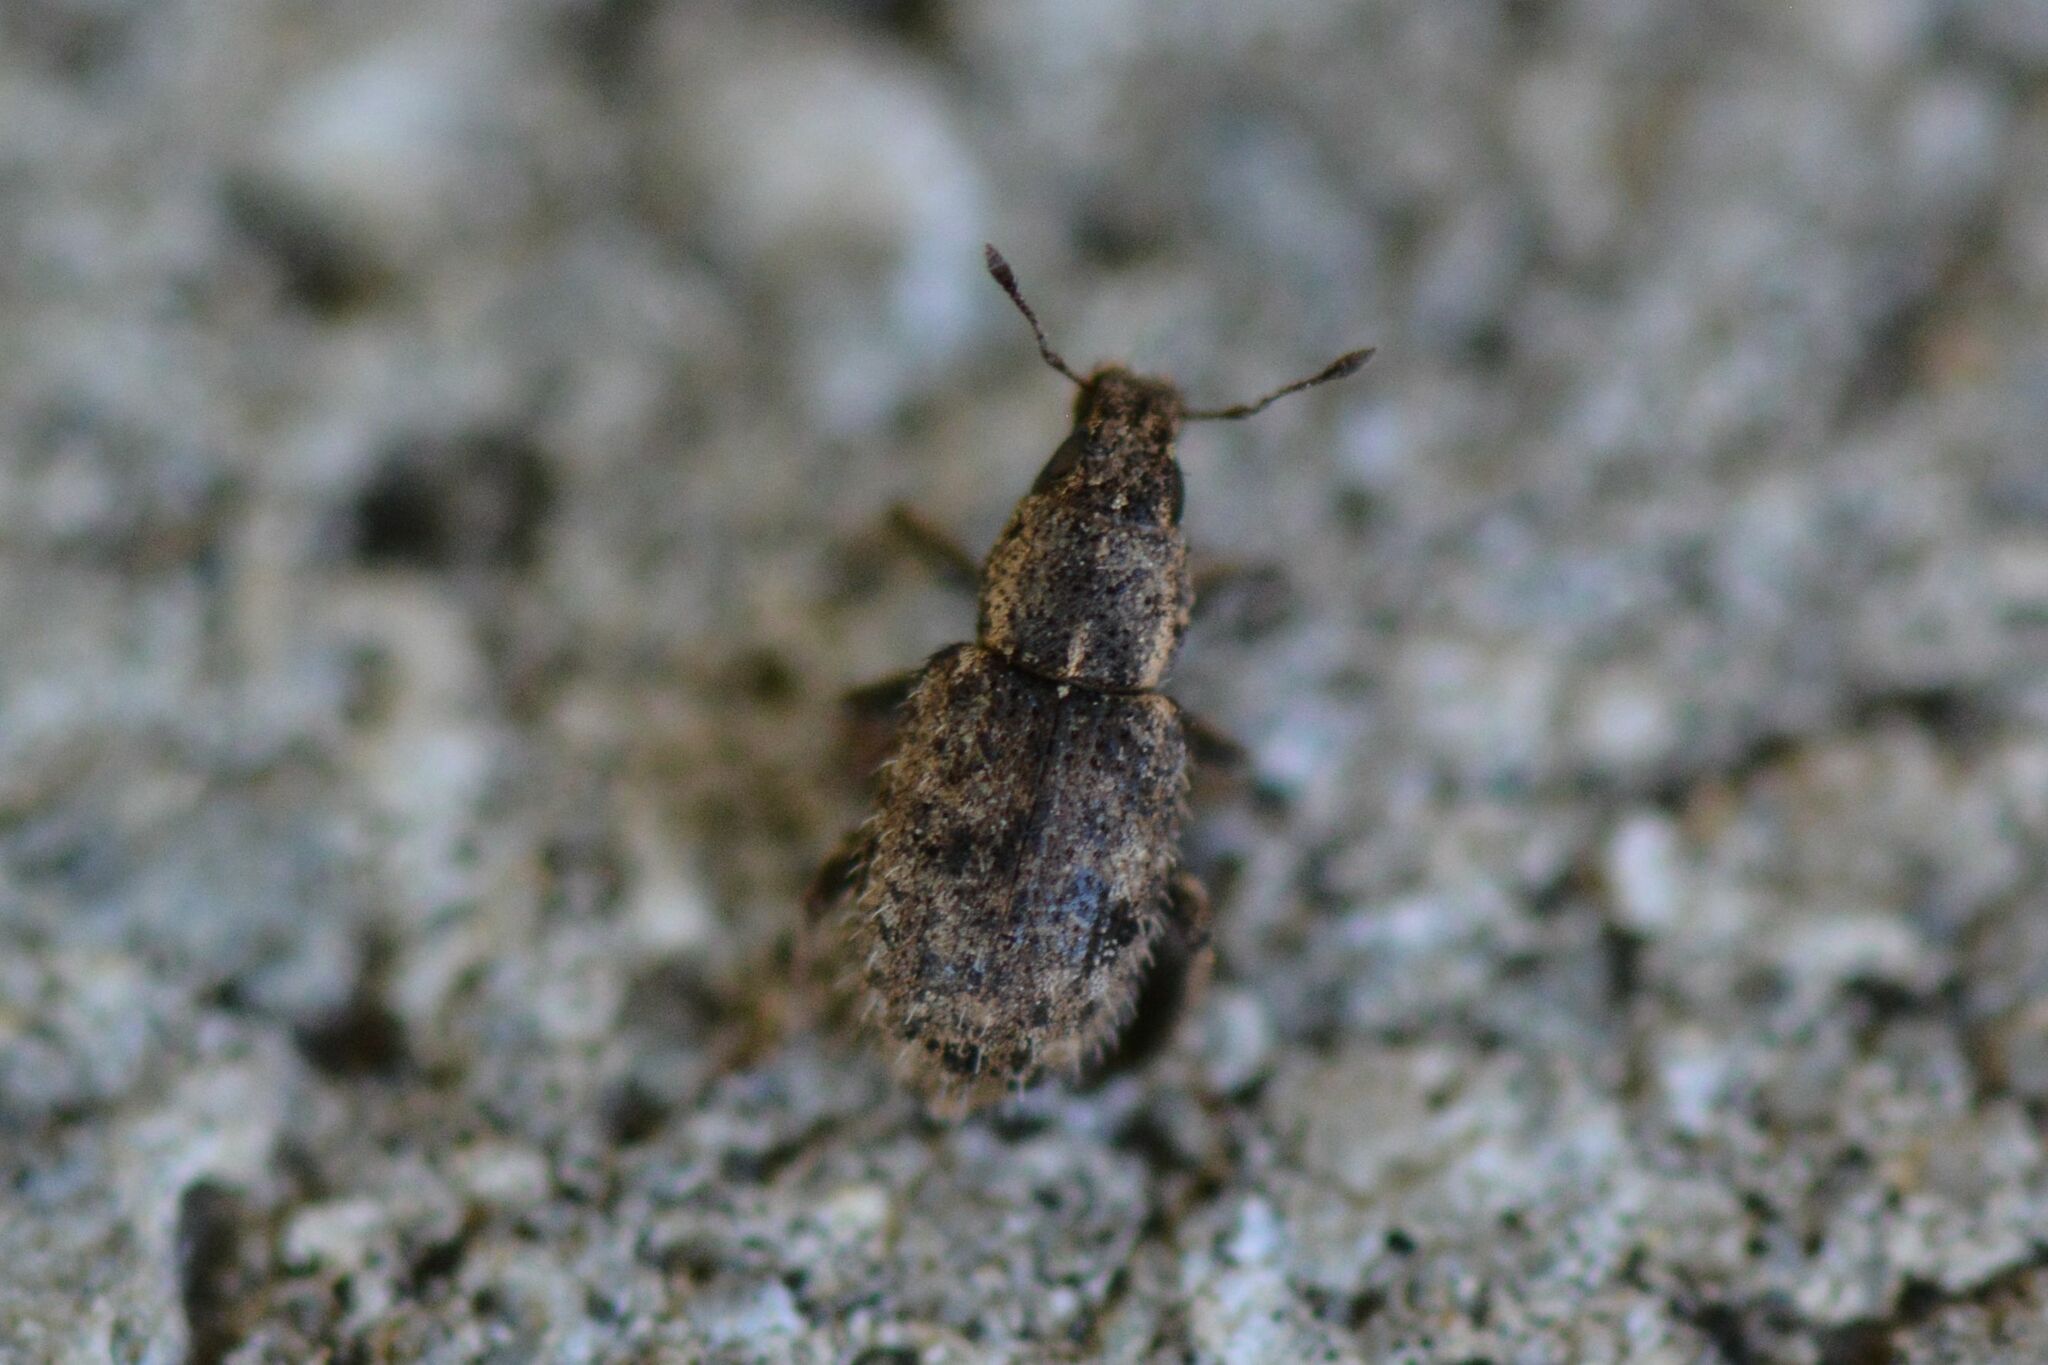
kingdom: Animalia
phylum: Arthropoda
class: Insecta
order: Coleoptera
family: Curculionidae
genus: Sitona
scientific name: Sitona hispidulus
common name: Clover weevil
